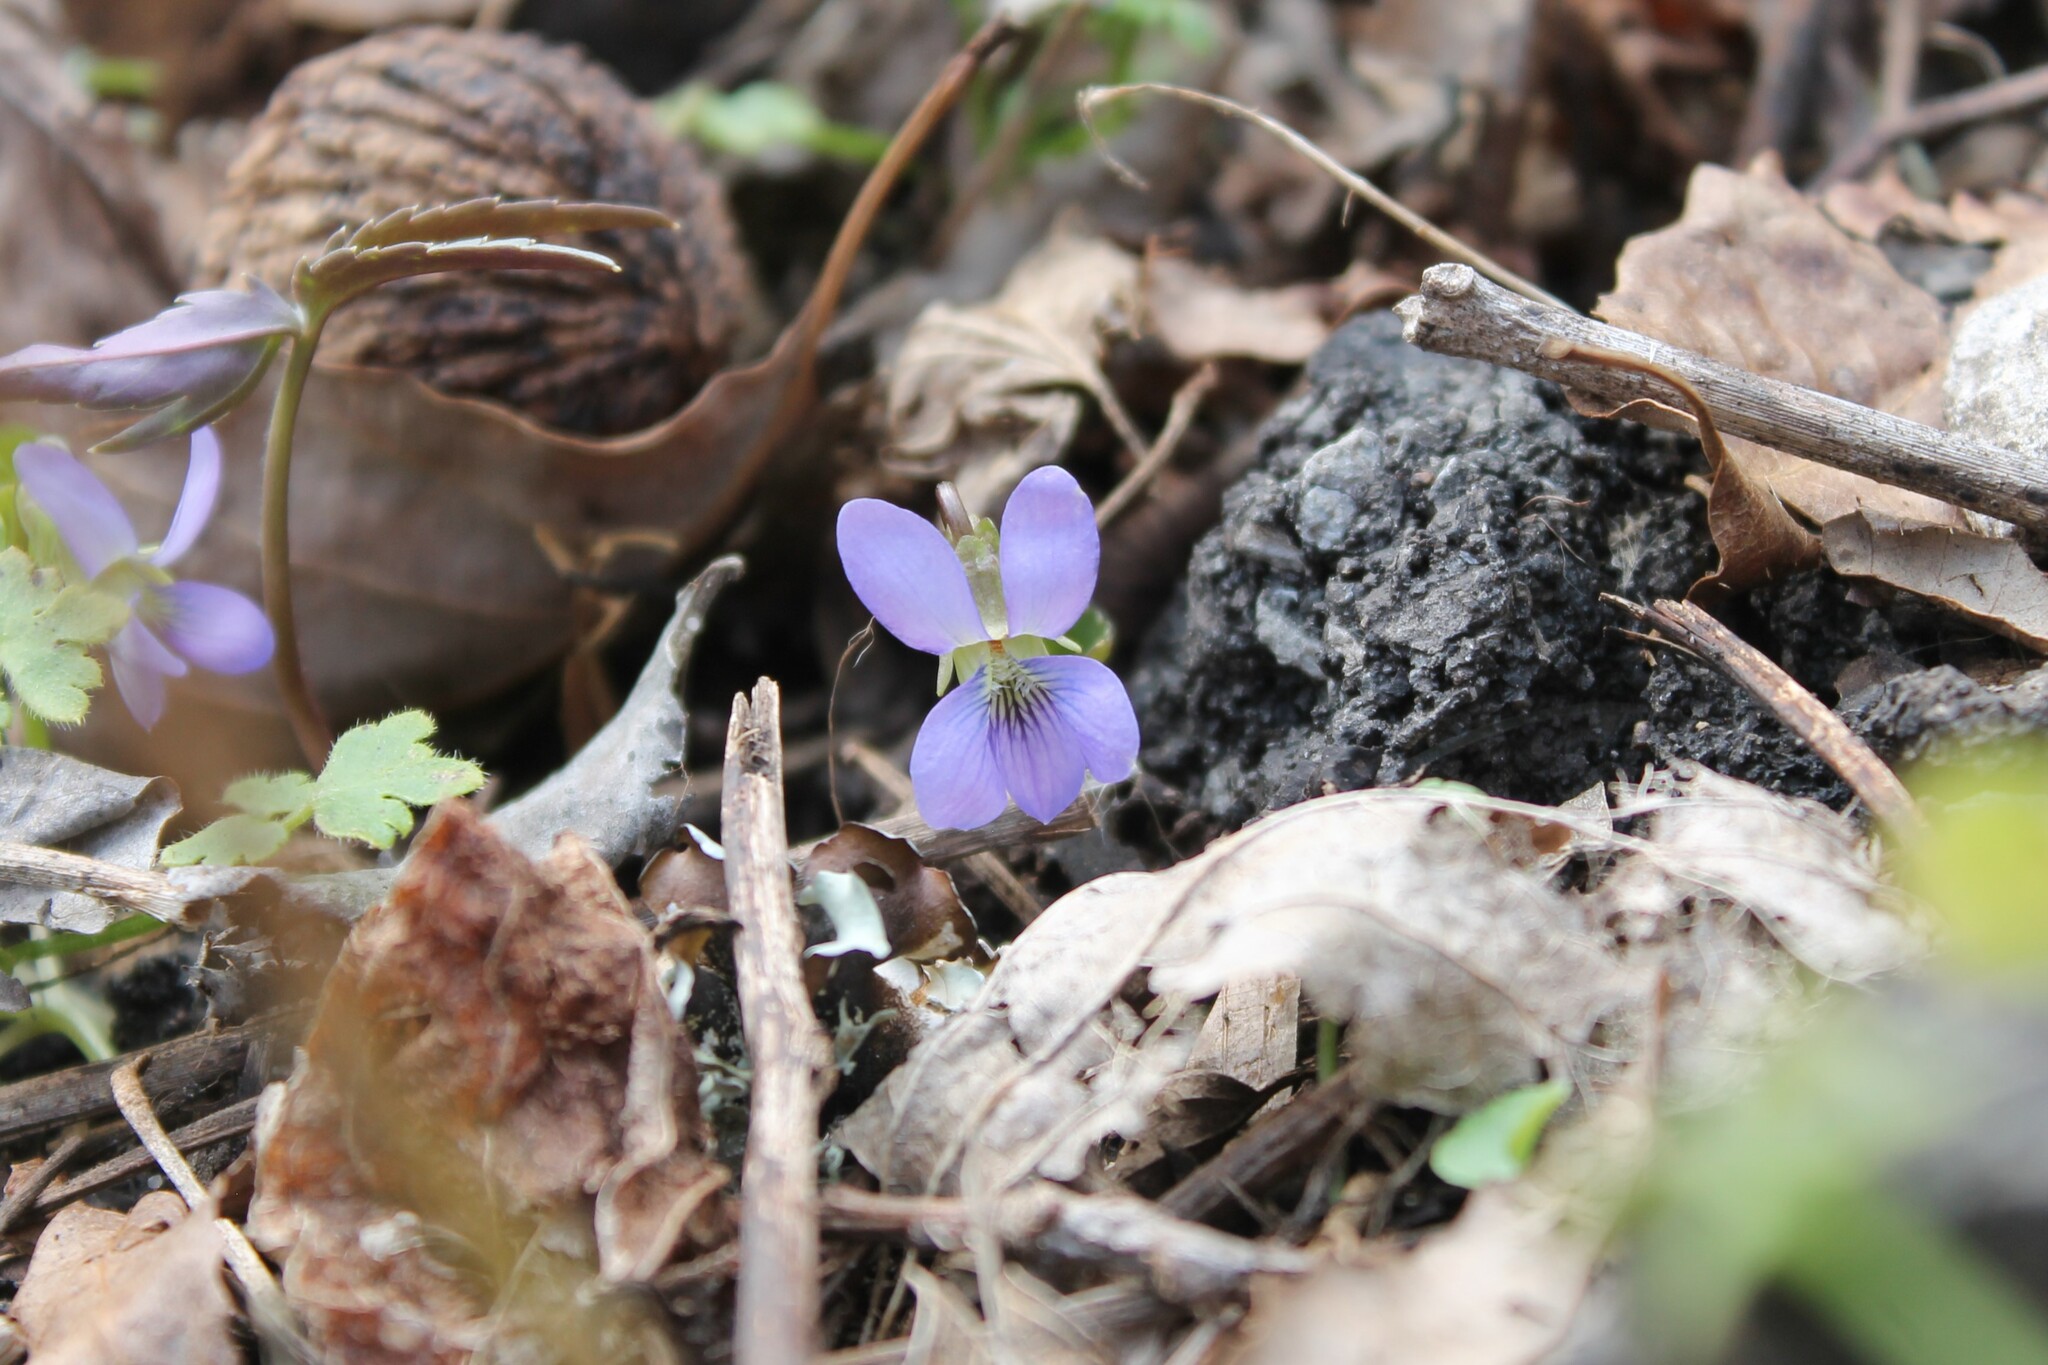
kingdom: Plantae
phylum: Tracheophyta
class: Magnoliopsida
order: Malpighiales
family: Violaceae
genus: Viola
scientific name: Viola sororia
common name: Dooryard violet
